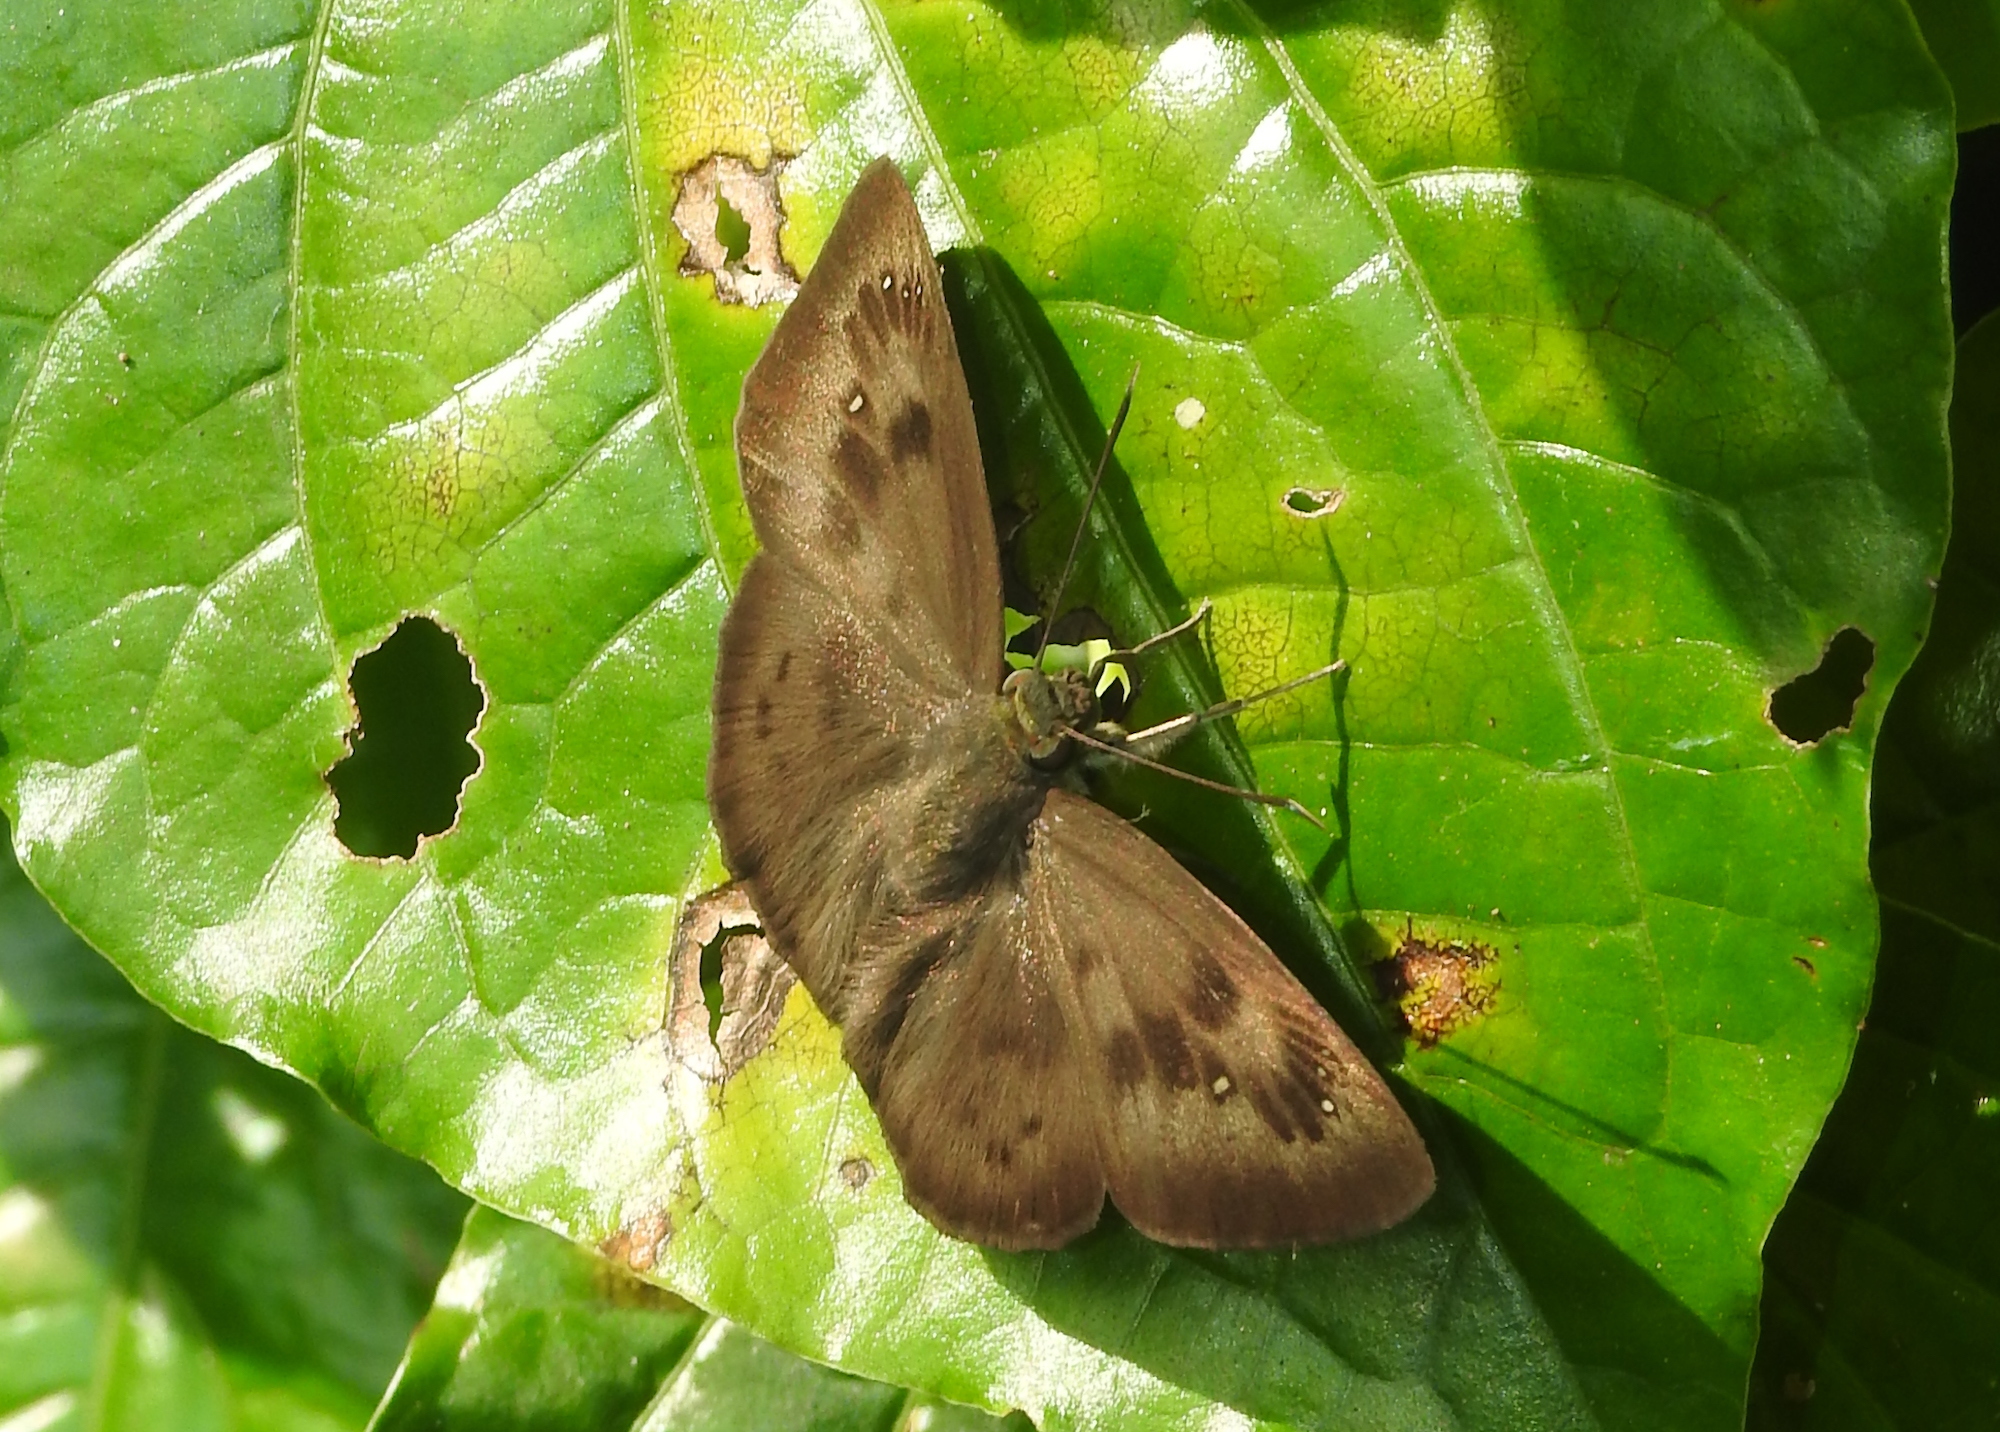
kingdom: Animalia
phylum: Arthropoda
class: Insecta
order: Lepidoptera
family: Hesperiidae
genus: Tagiades
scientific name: Tagiades japetus
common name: Pied flat
